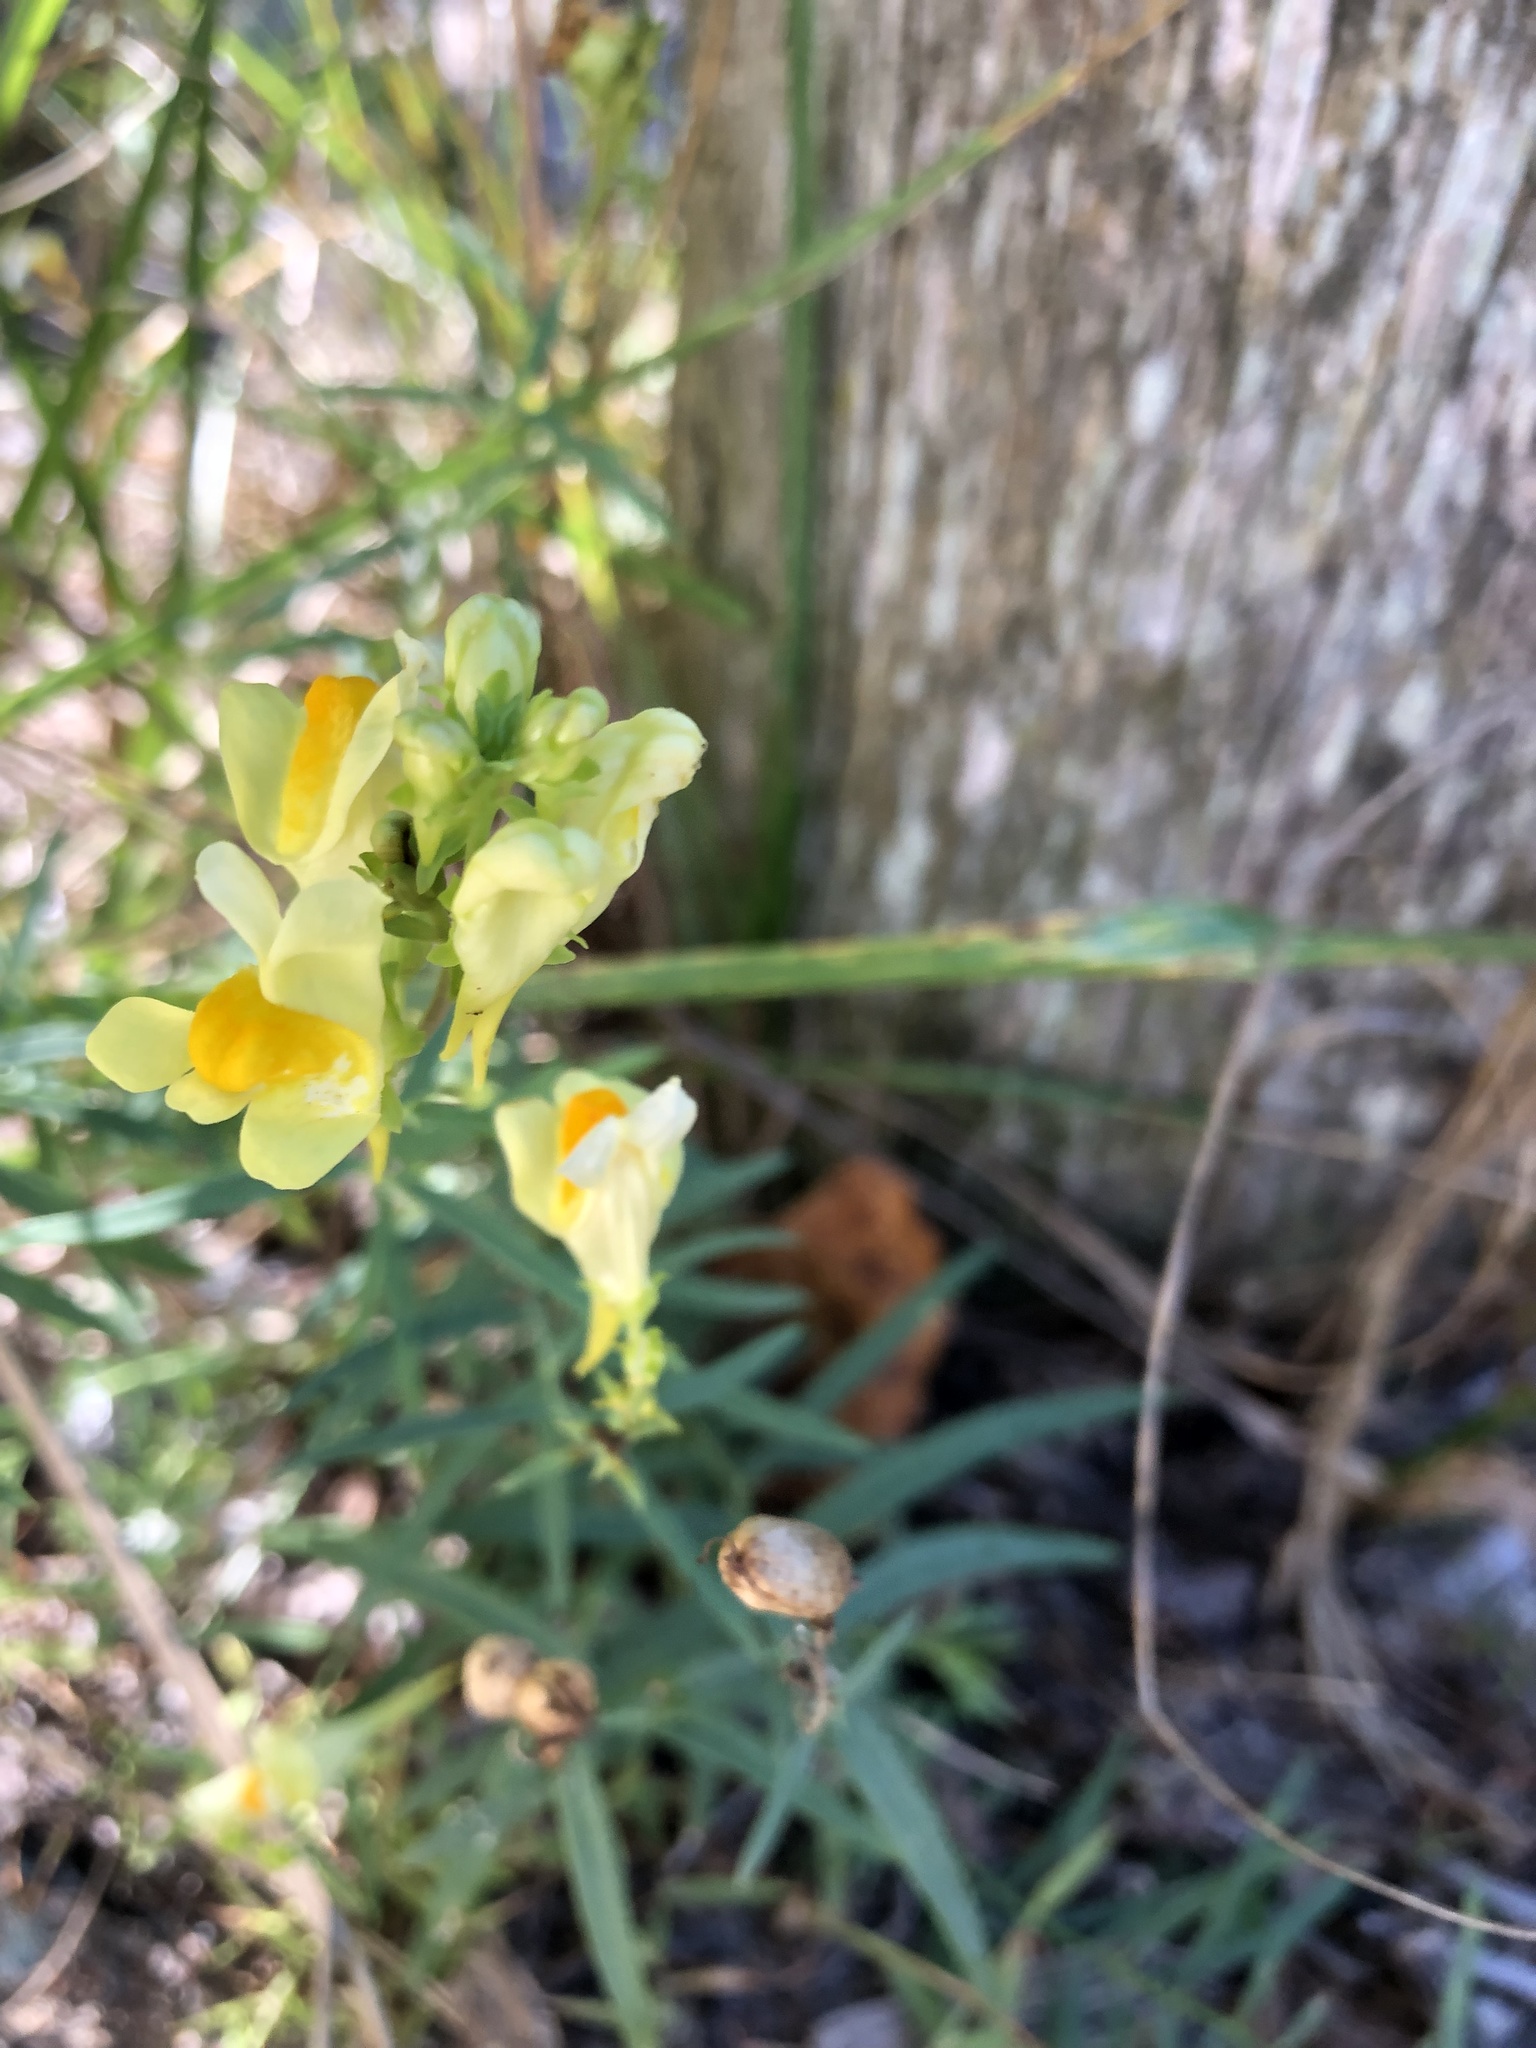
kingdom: Plantae
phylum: Tracheophyta
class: Magnoliopsida
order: Lamiales
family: Plantaginaceae
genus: Linaria
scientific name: Linaria vulgaris
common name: Butter and eggs
